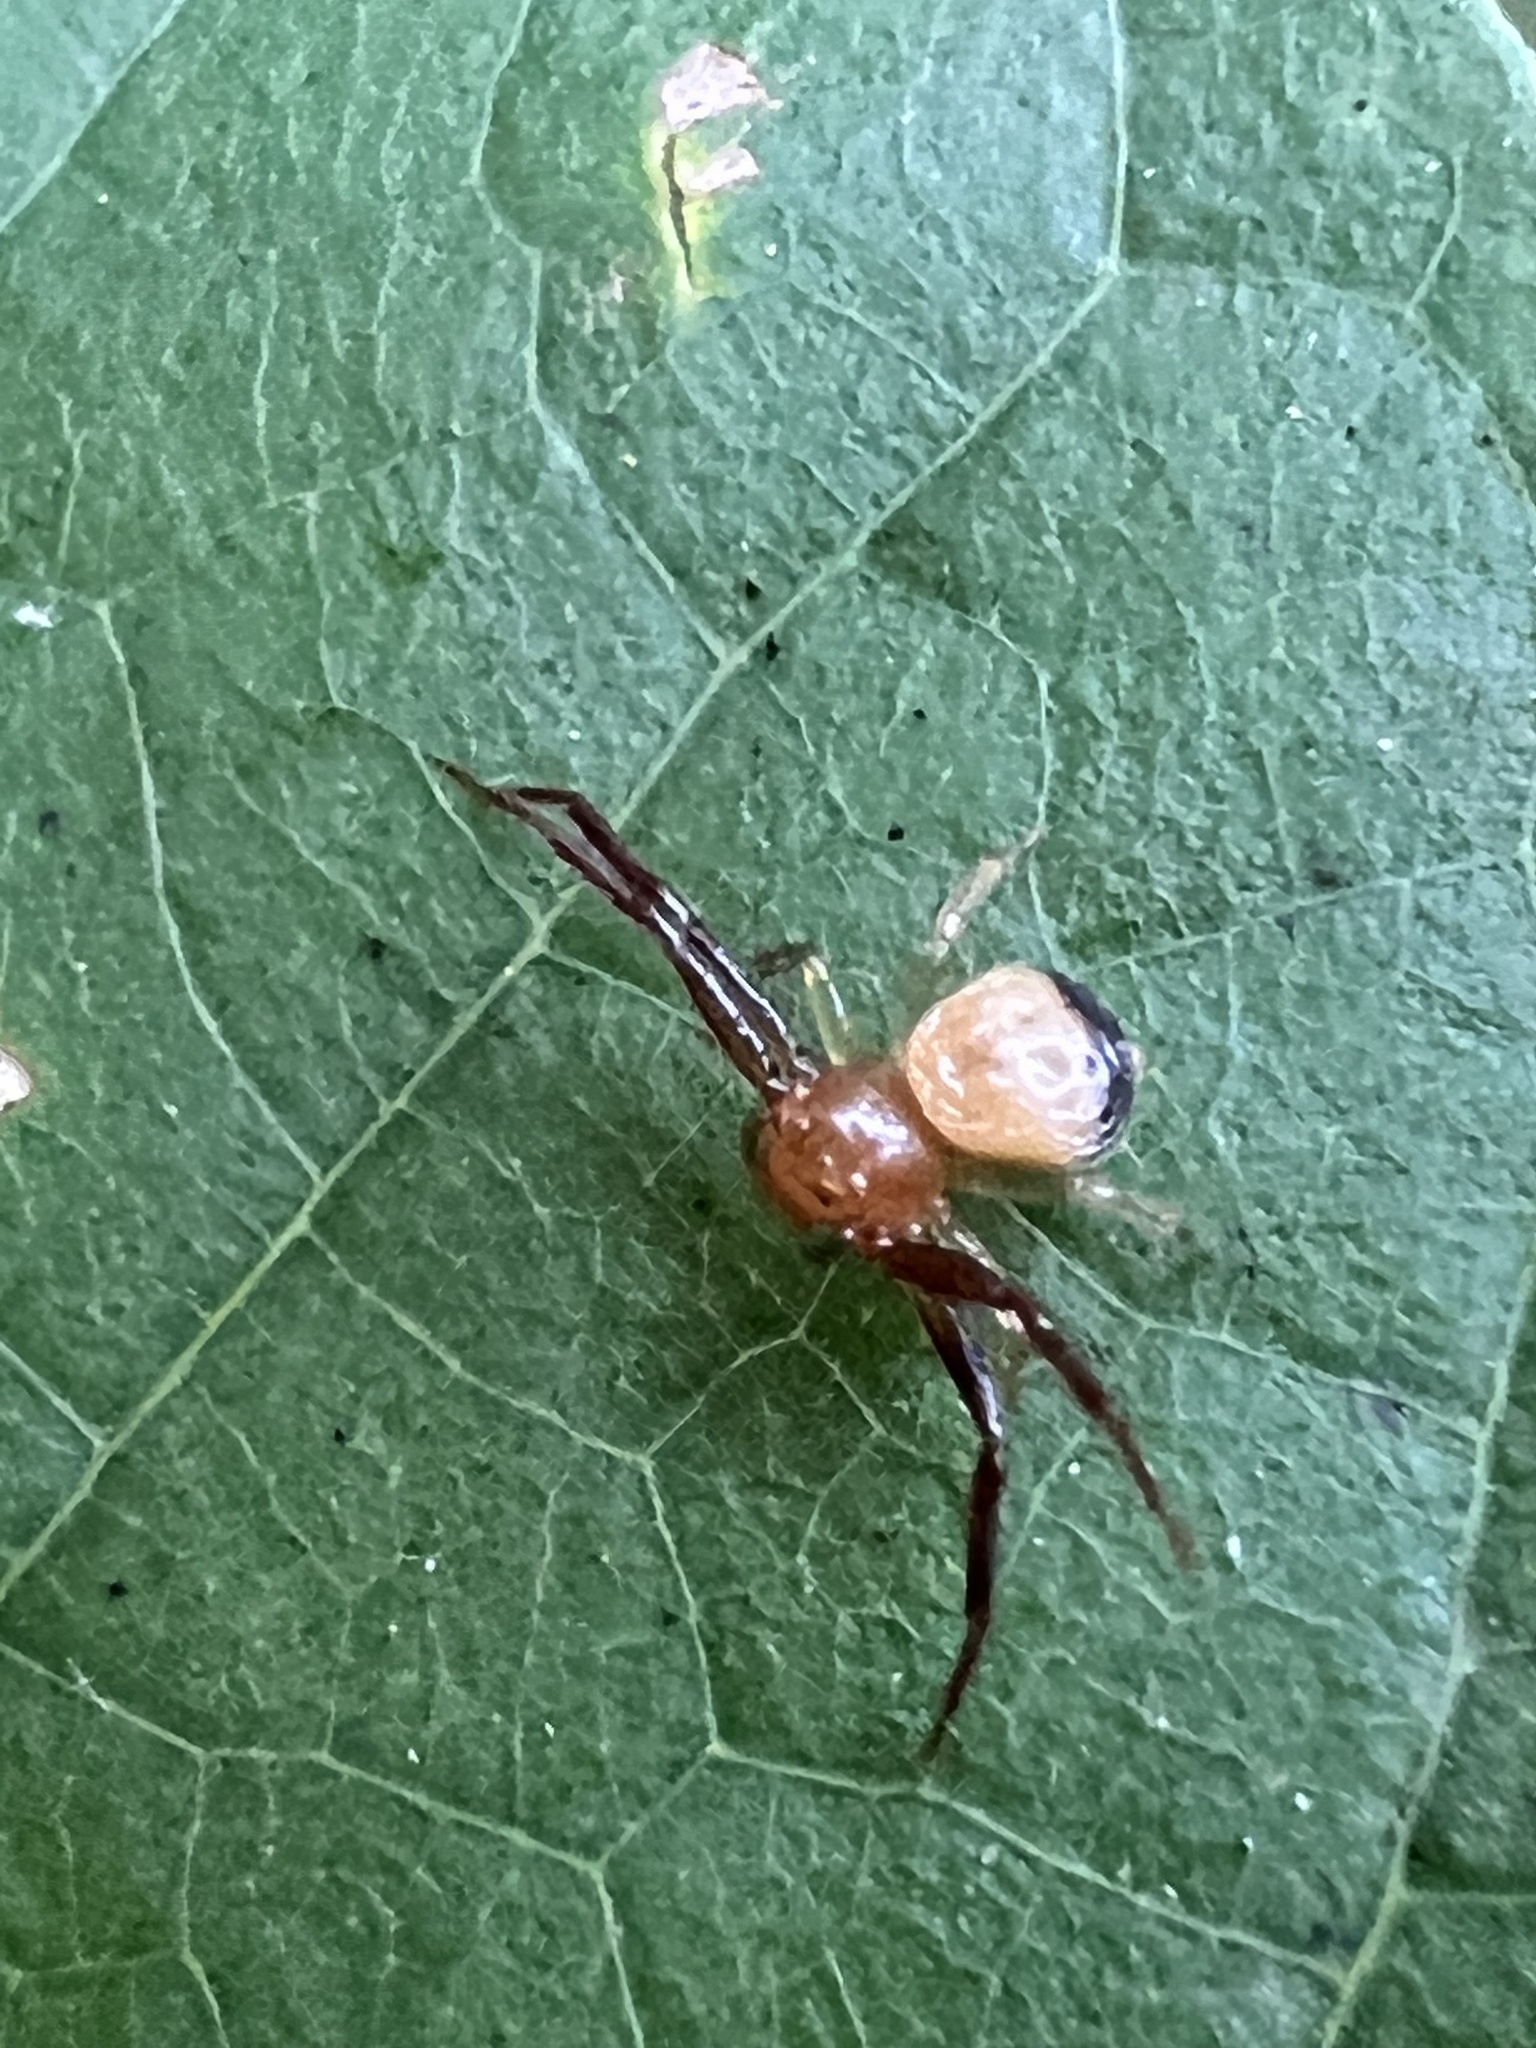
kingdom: Animalia
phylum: Arthropoda
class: Arachnida
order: Araneae
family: Thomisidae
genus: Synema
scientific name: Synema parvulum
